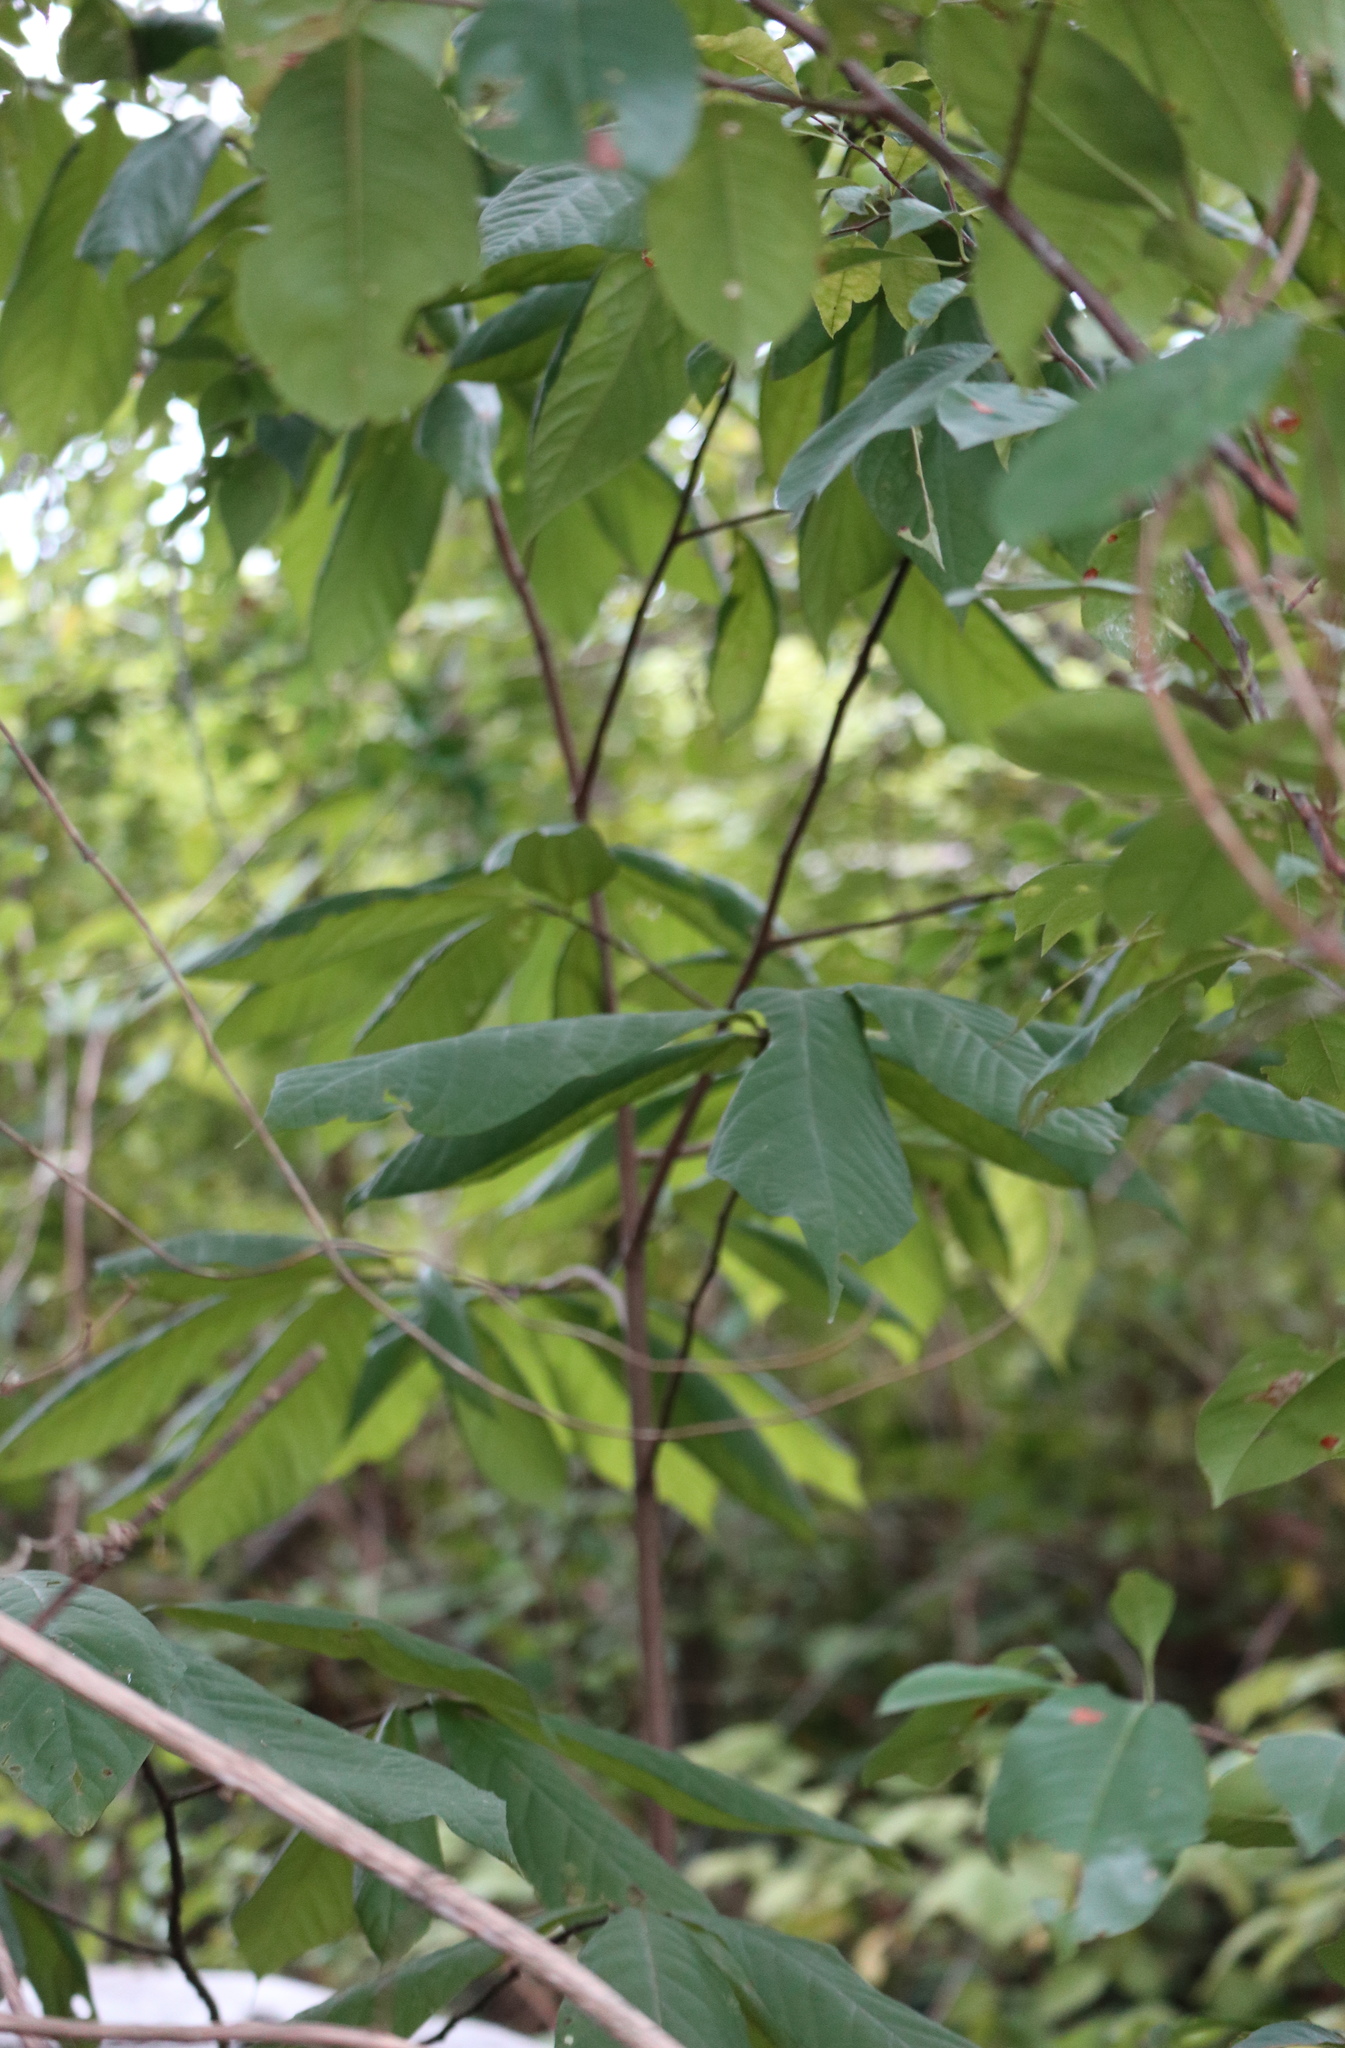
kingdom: Plantae
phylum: Tracheophyta
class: Magnoliopsida
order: Magnoliales
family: Annonaceae
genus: Asimina
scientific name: Asimina triloba
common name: Dog-banana
